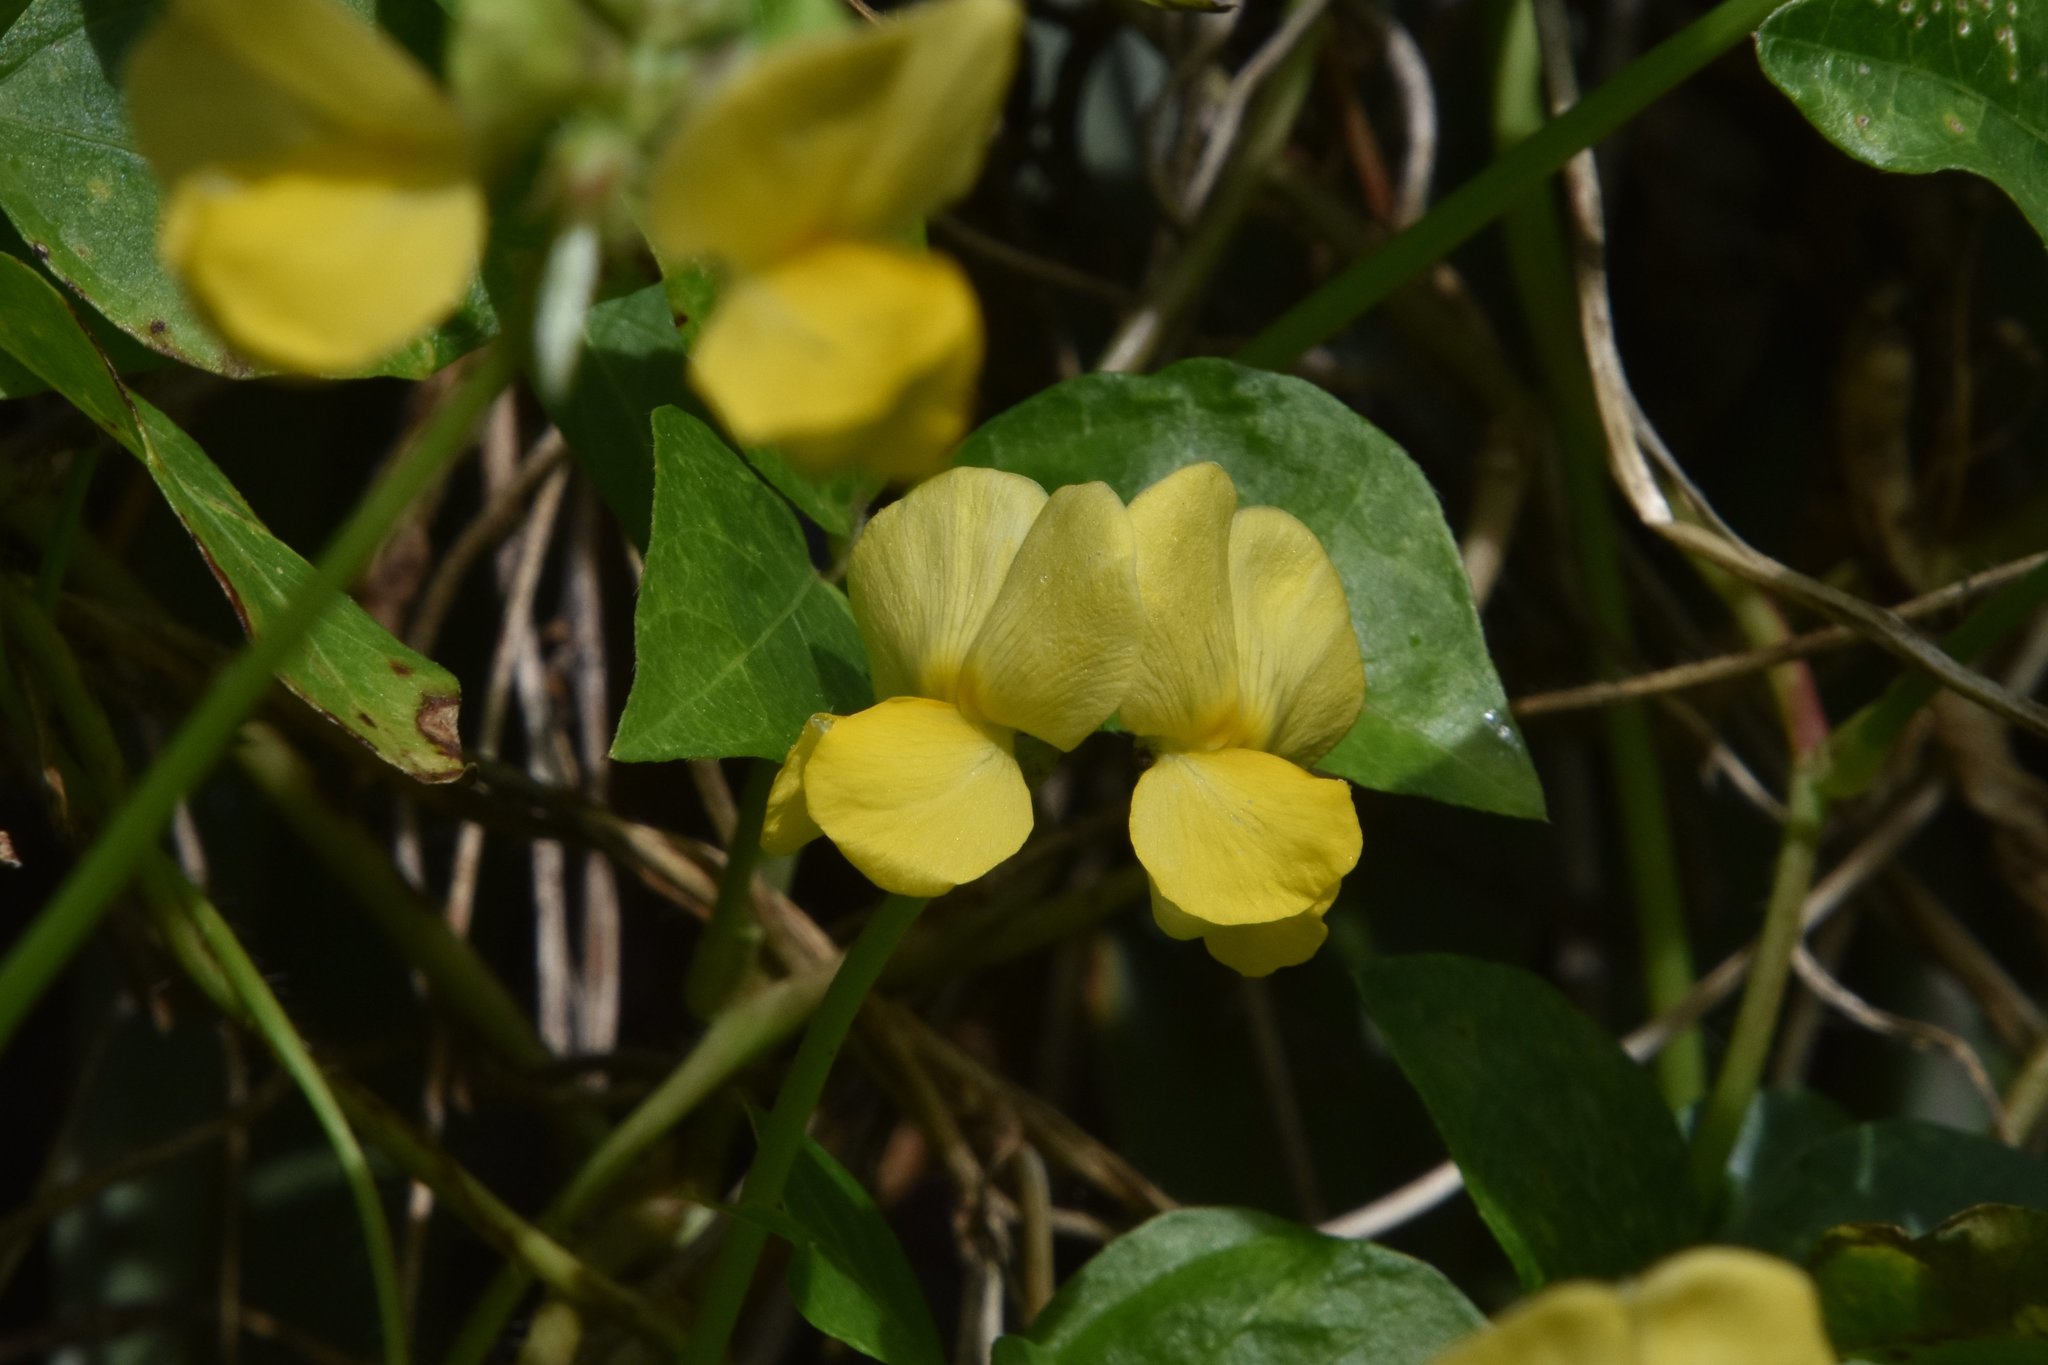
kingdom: Plantae
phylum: Tracheophyta
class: Magnoliopsida
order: Fabales
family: Fabaceae
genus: Vigna
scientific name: Vigna luteola
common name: Hairypod cowpea
